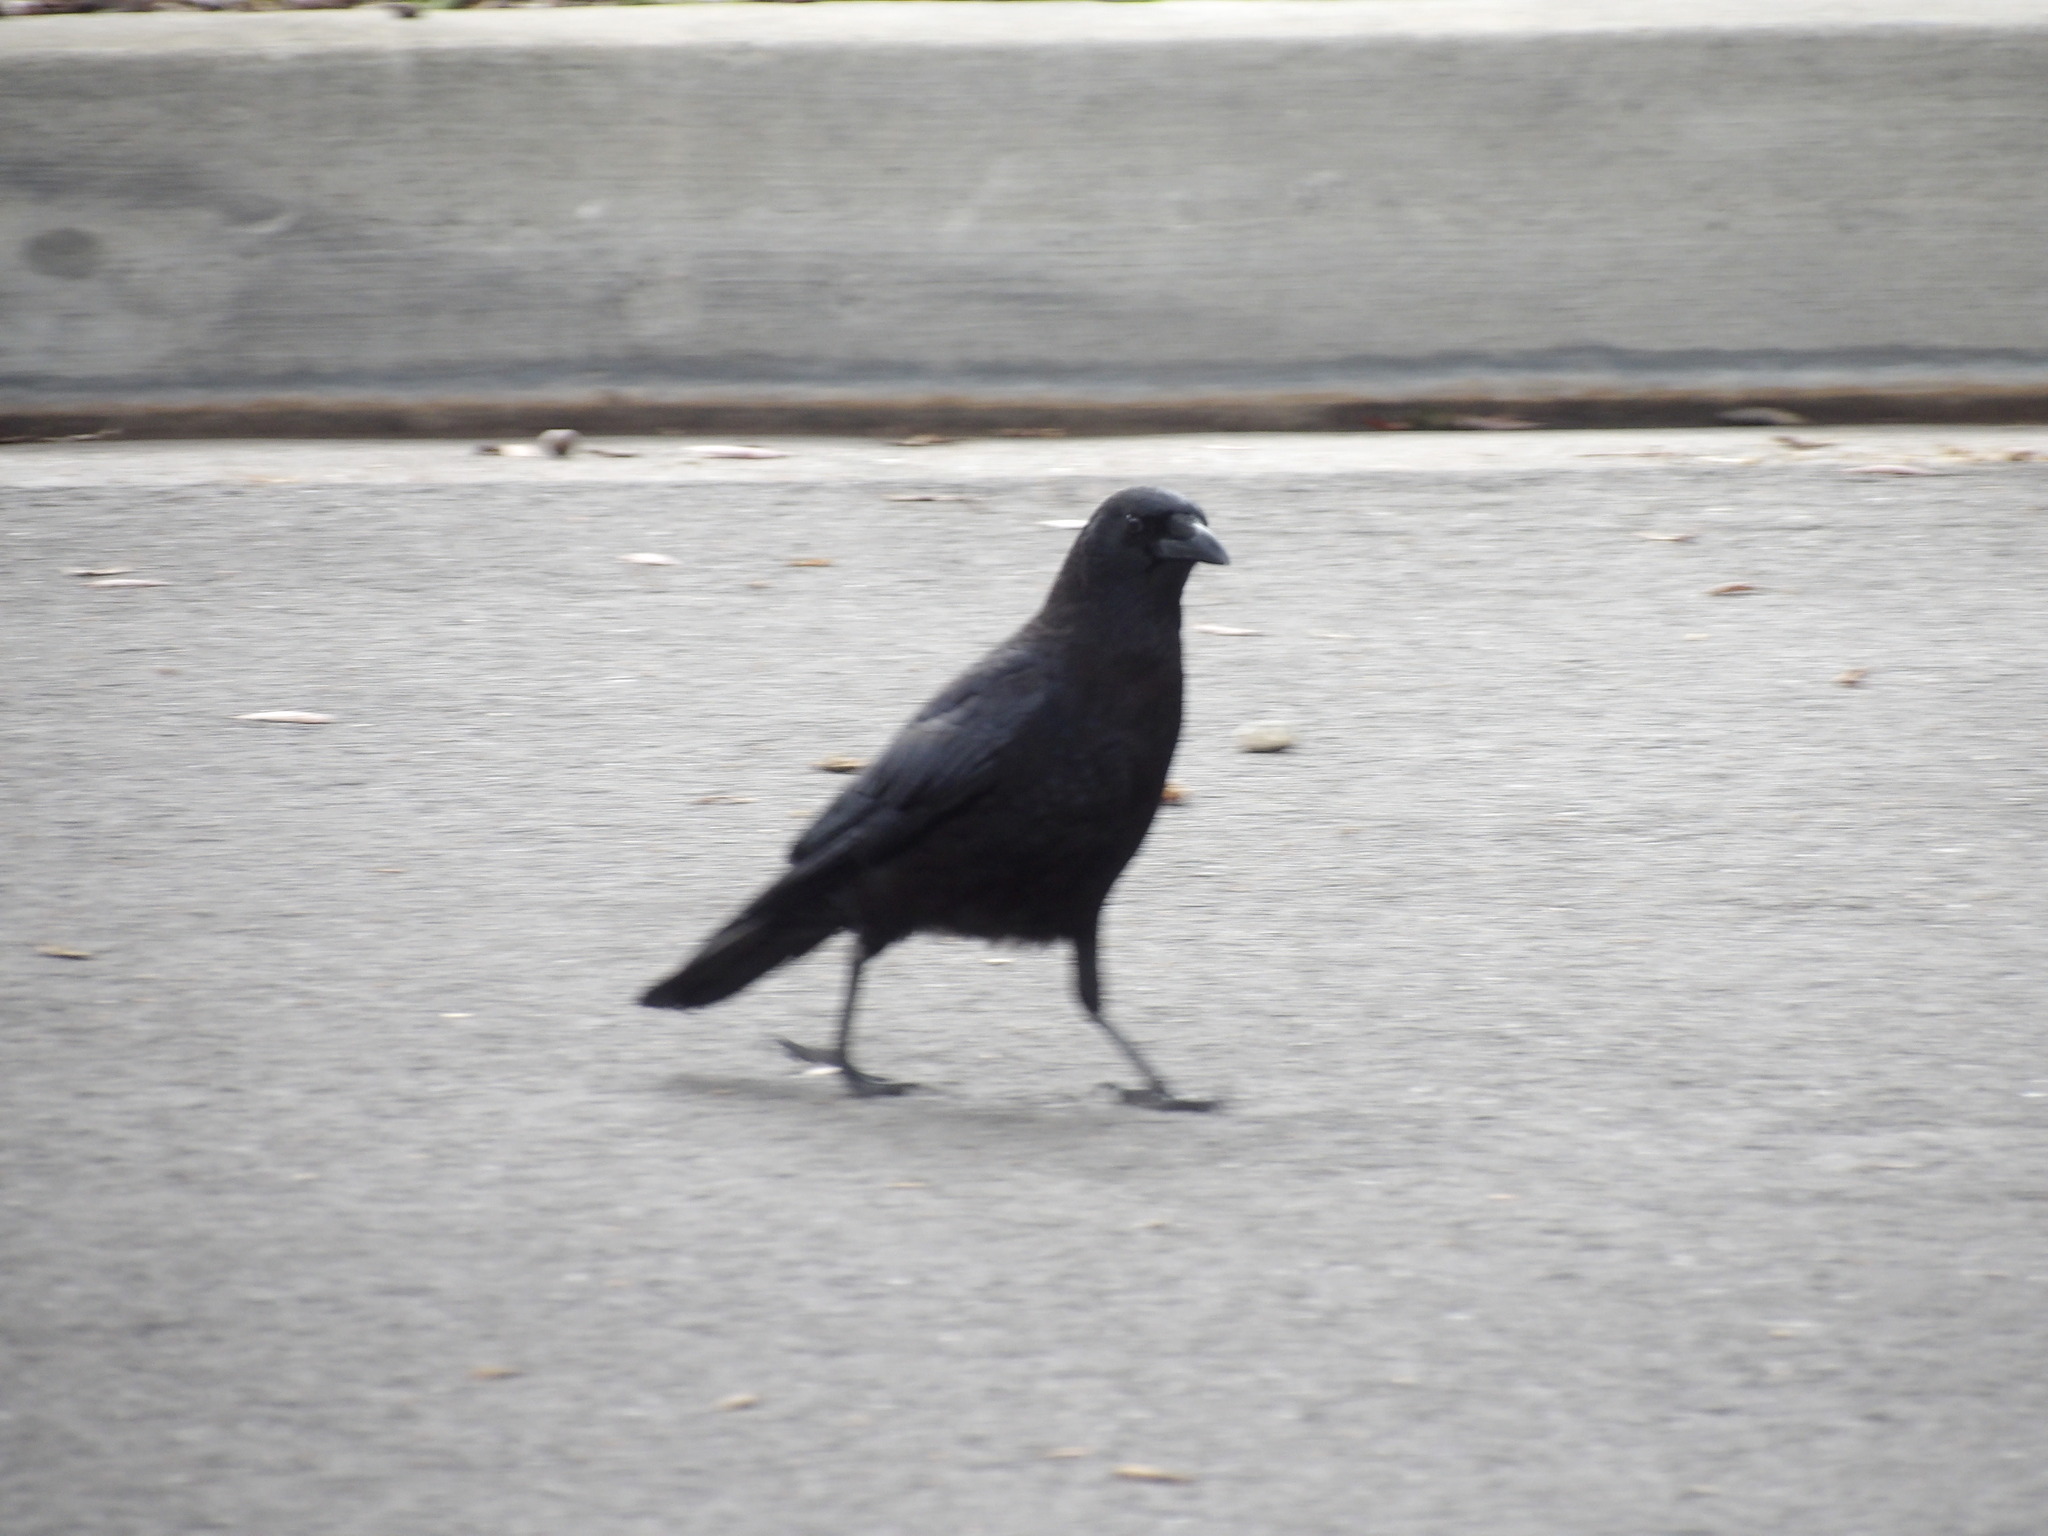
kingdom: Animalia
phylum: Chordata
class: Aves
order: Passeriformes
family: Corvidae
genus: Corvus
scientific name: Corvus brachyrhynchos
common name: American crow
